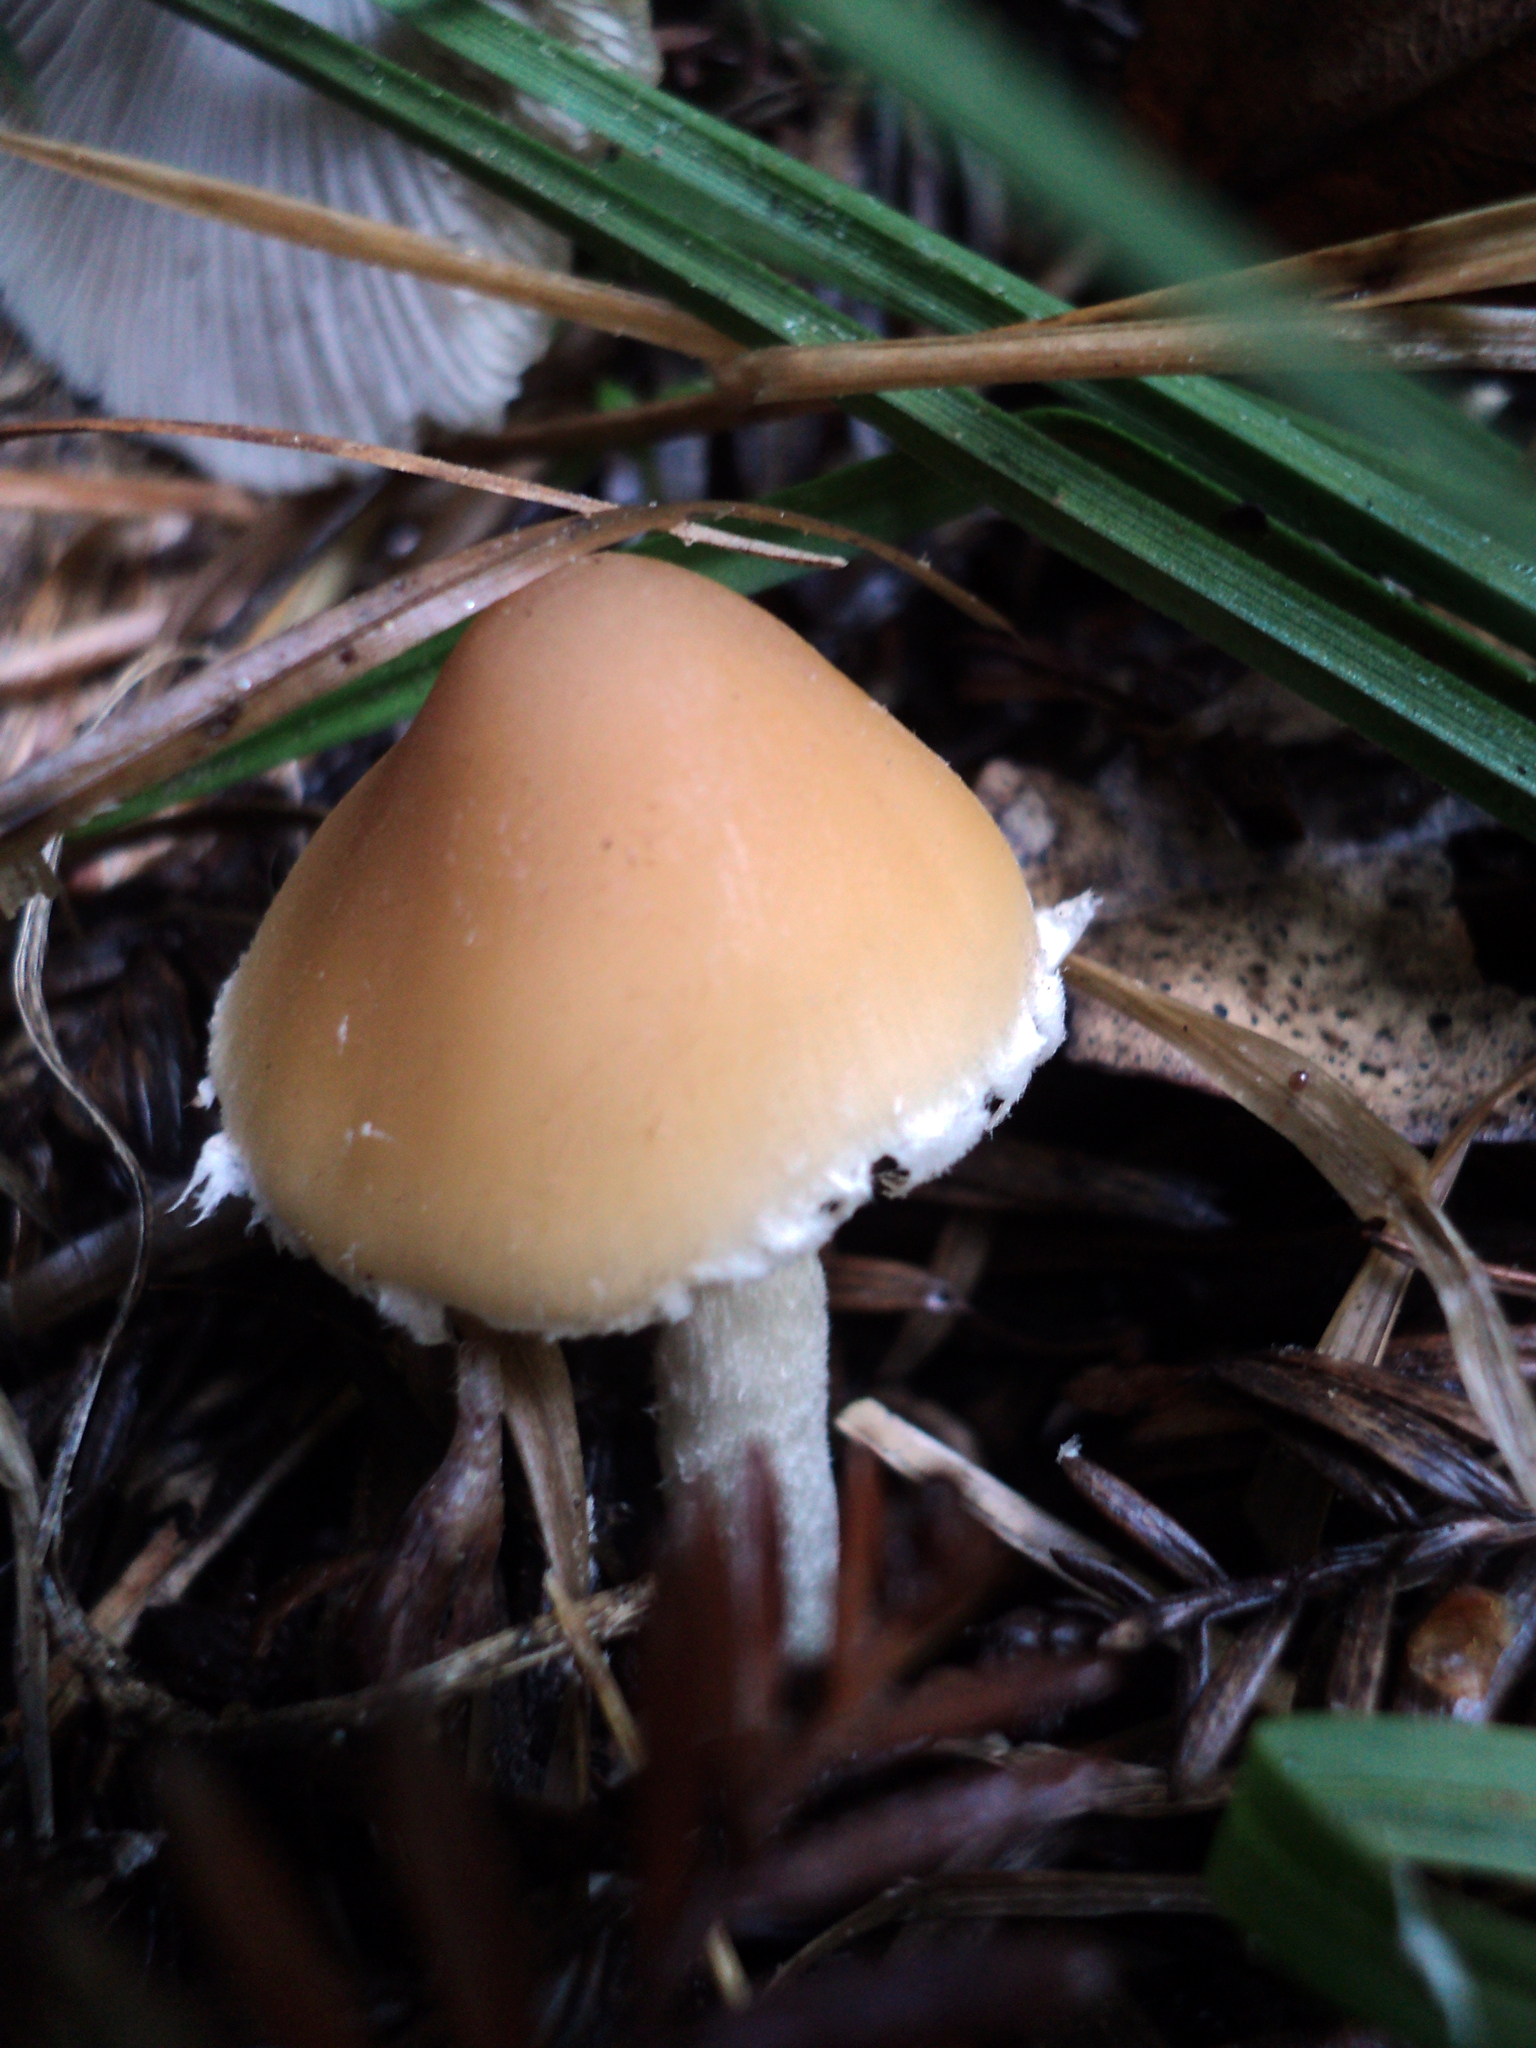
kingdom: Fungi
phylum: Basidiomycota
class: Agaricomycetes
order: Agaricales
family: Psathyrellaceae
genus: Candolleomyces
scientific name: Candolleomyces candolleanus
